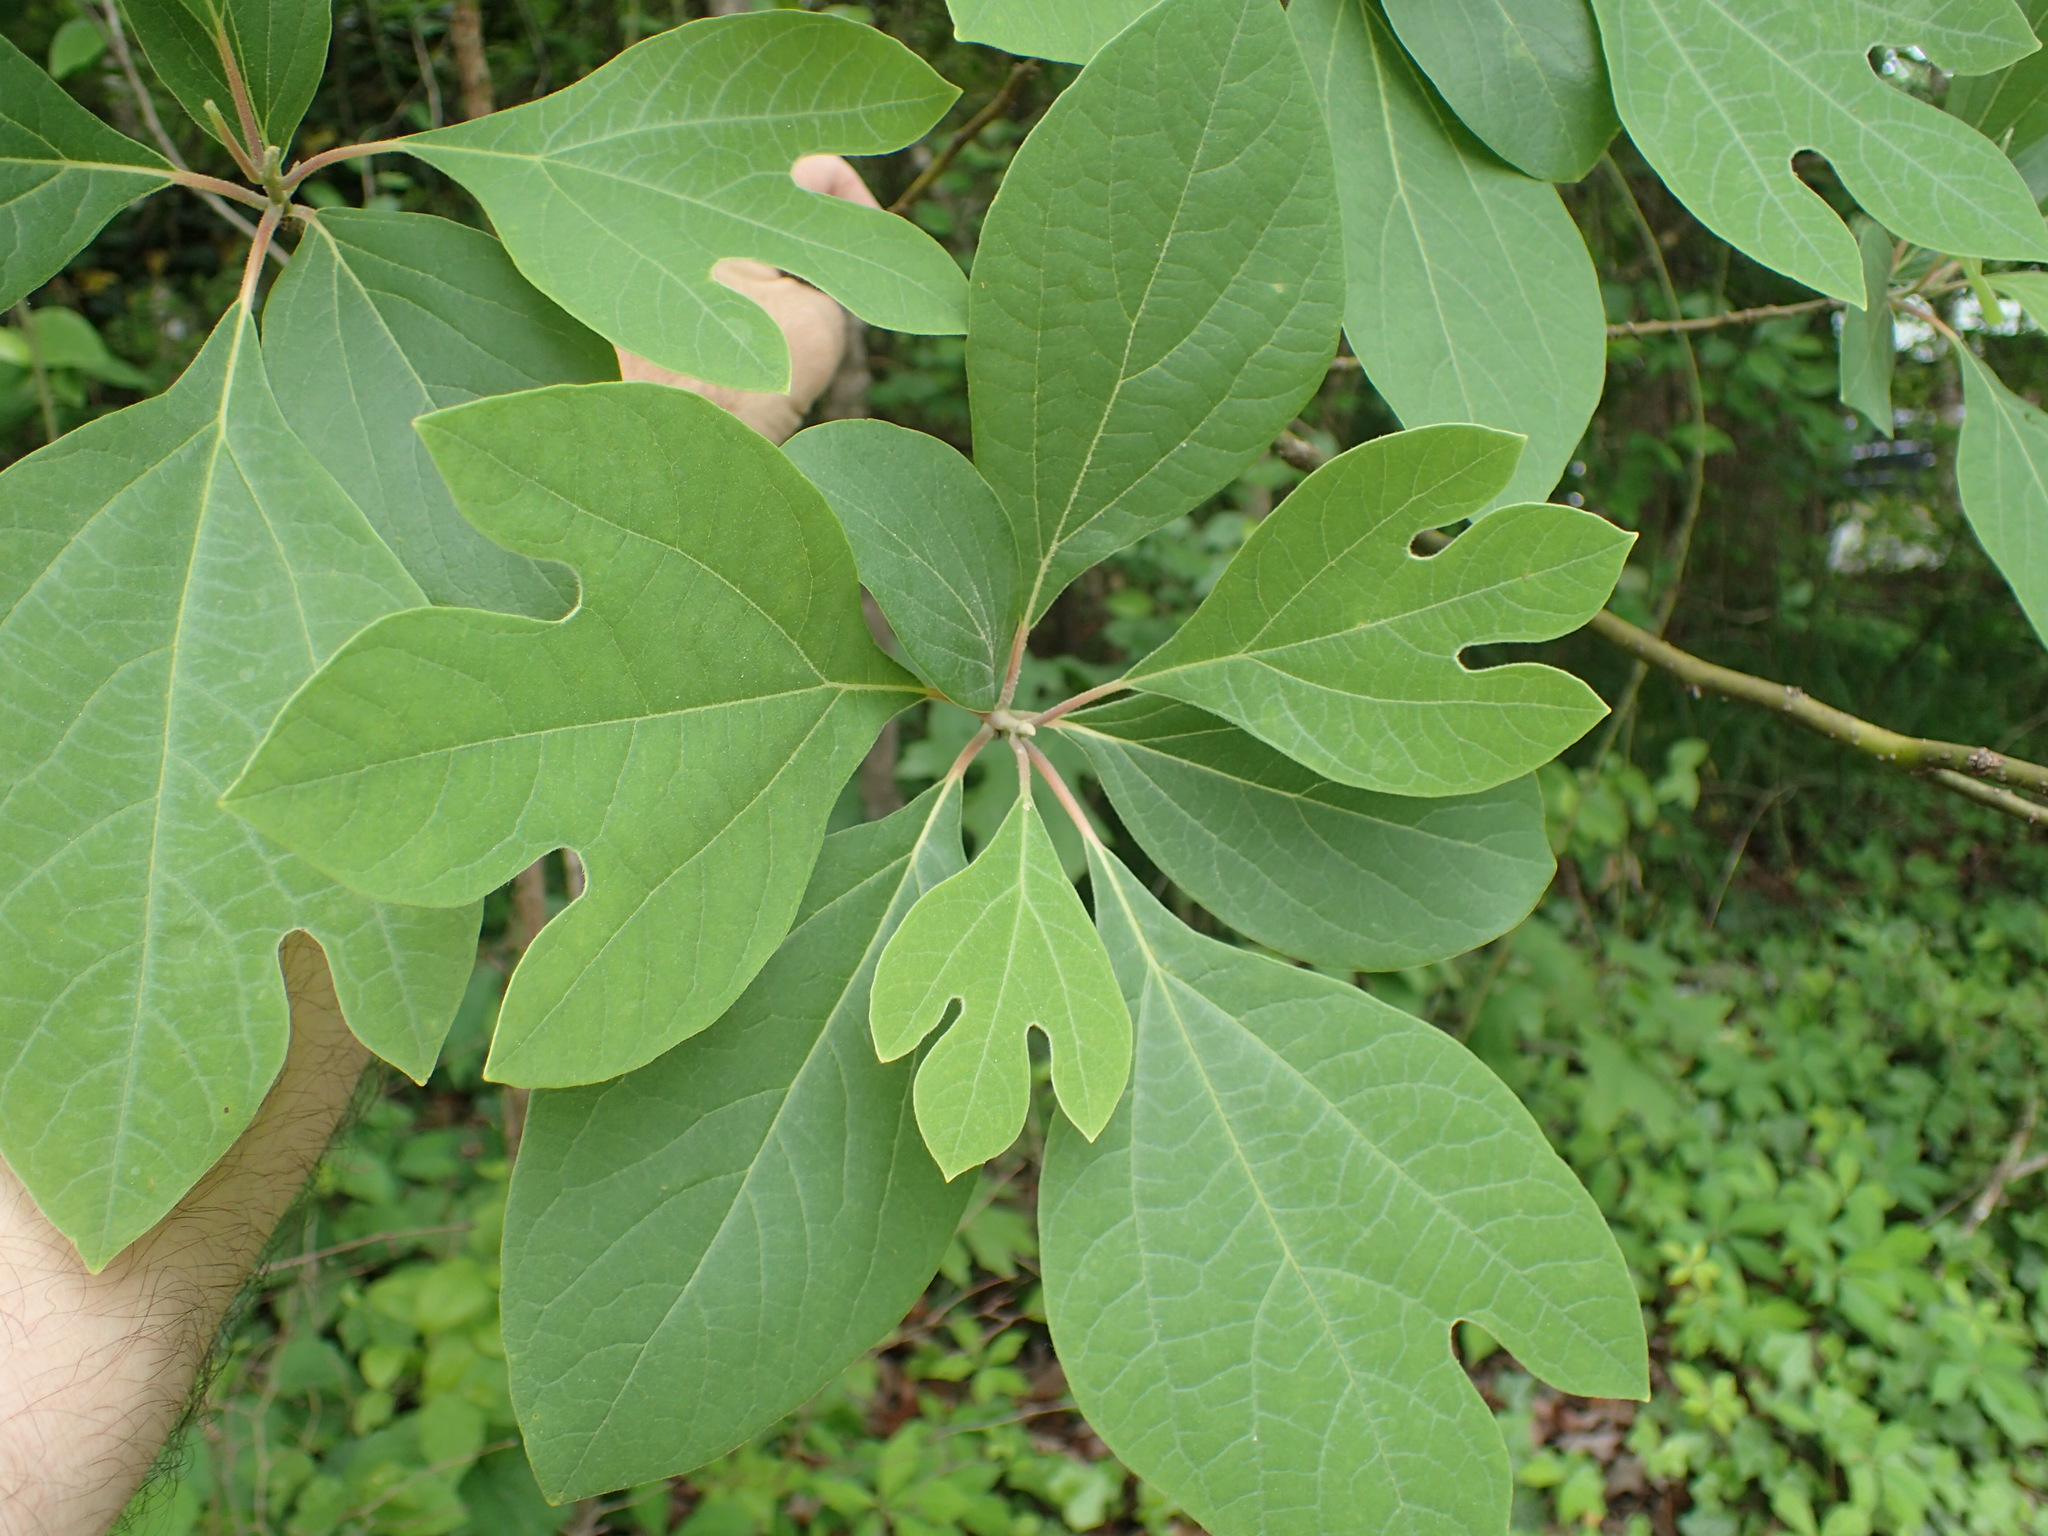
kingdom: Plantae
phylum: Tracheophyta
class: Magnoliopsida
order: Laurales
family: Lauraceae
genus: Sassafras
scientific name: Sassafras albidum
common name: Sassafras
